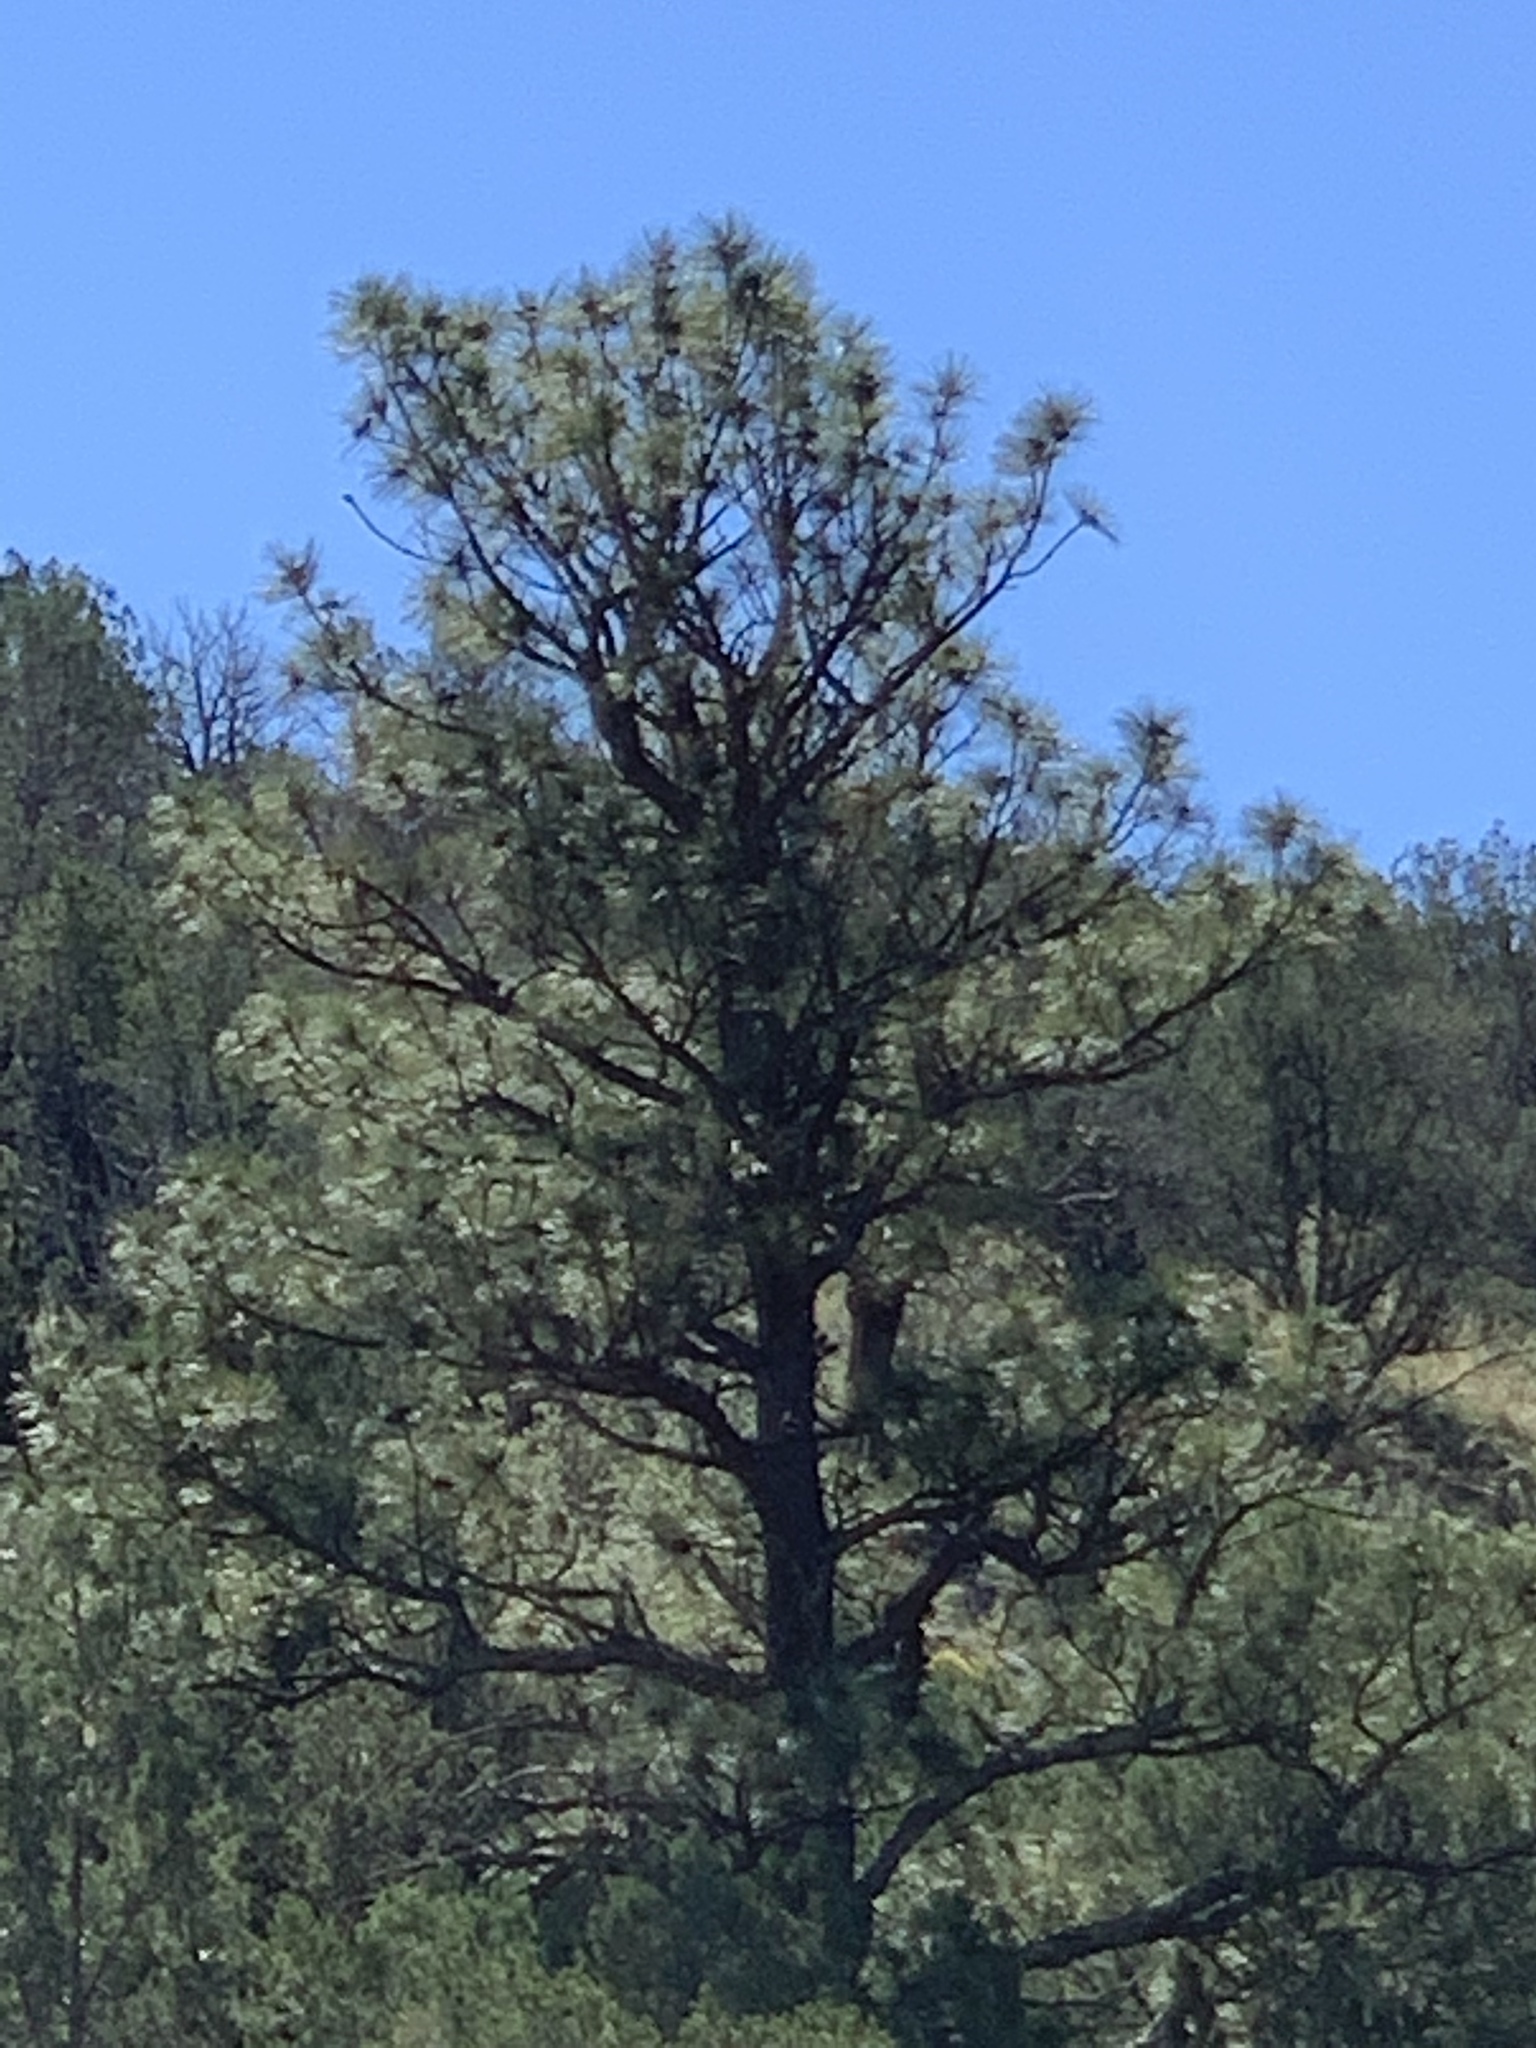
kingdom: Plantae
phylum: Tracheophyta
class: Pinopsida
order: Pinales
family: Pinaceae
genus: Pinus
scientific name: Pinus ponderosa
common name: Western yellow-pine
